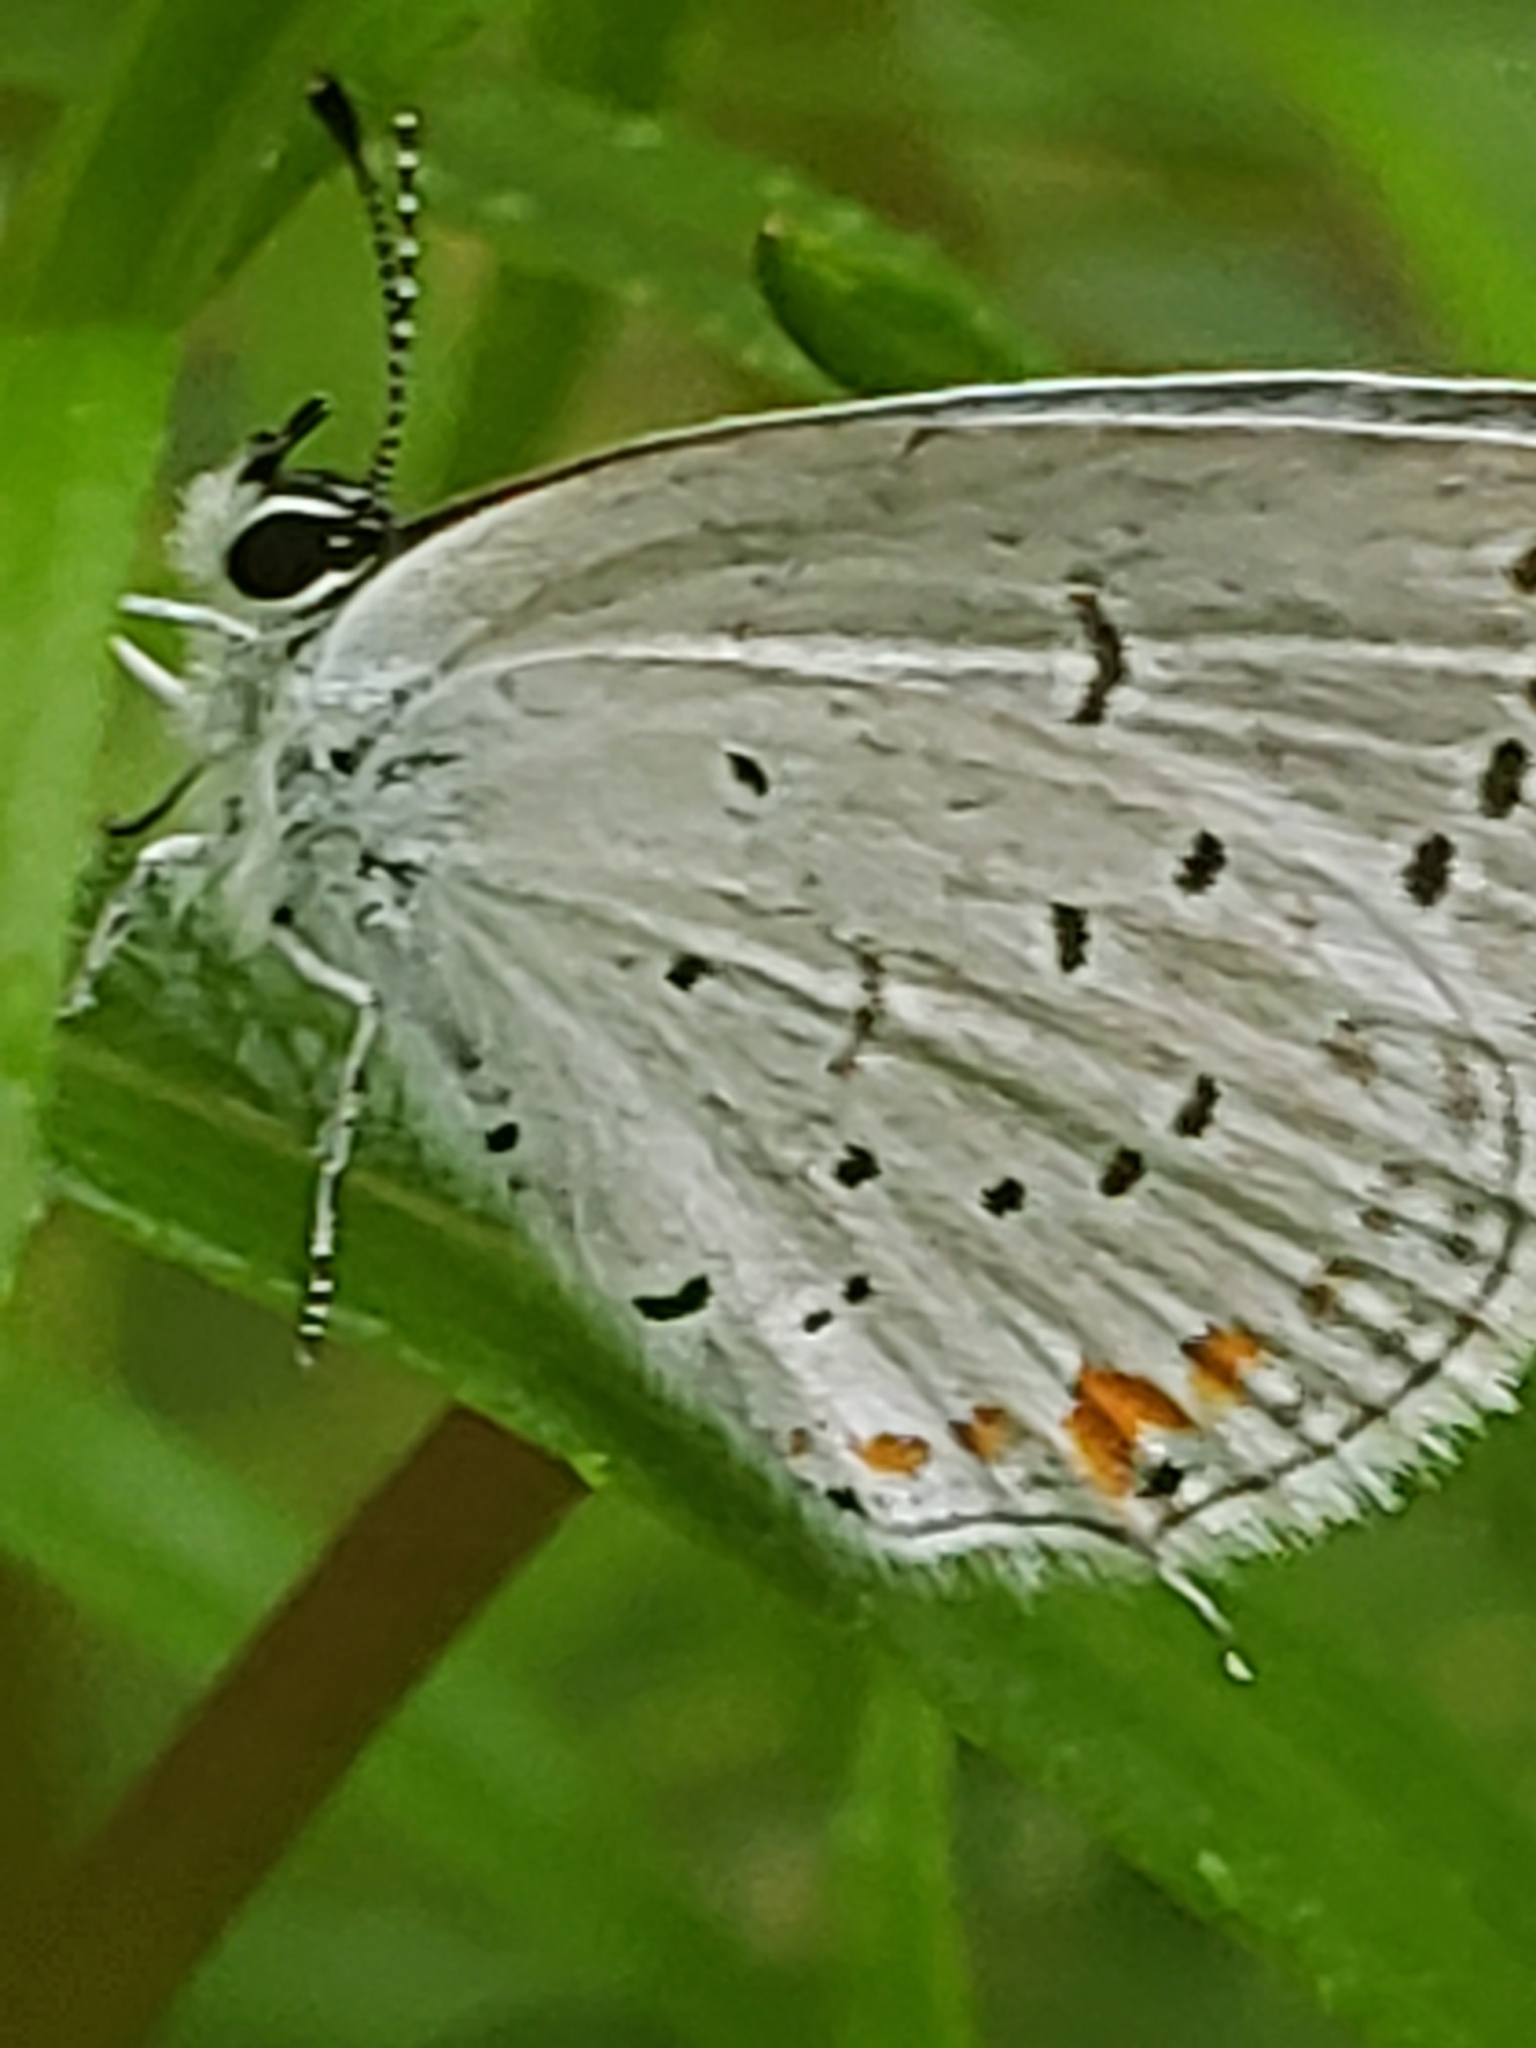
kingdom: Animalia
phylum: Arthropoda
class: Insecta
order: Lepidoptera
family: Lycaenidae
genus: Elkalyce
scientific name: Elkalyce comyntas
